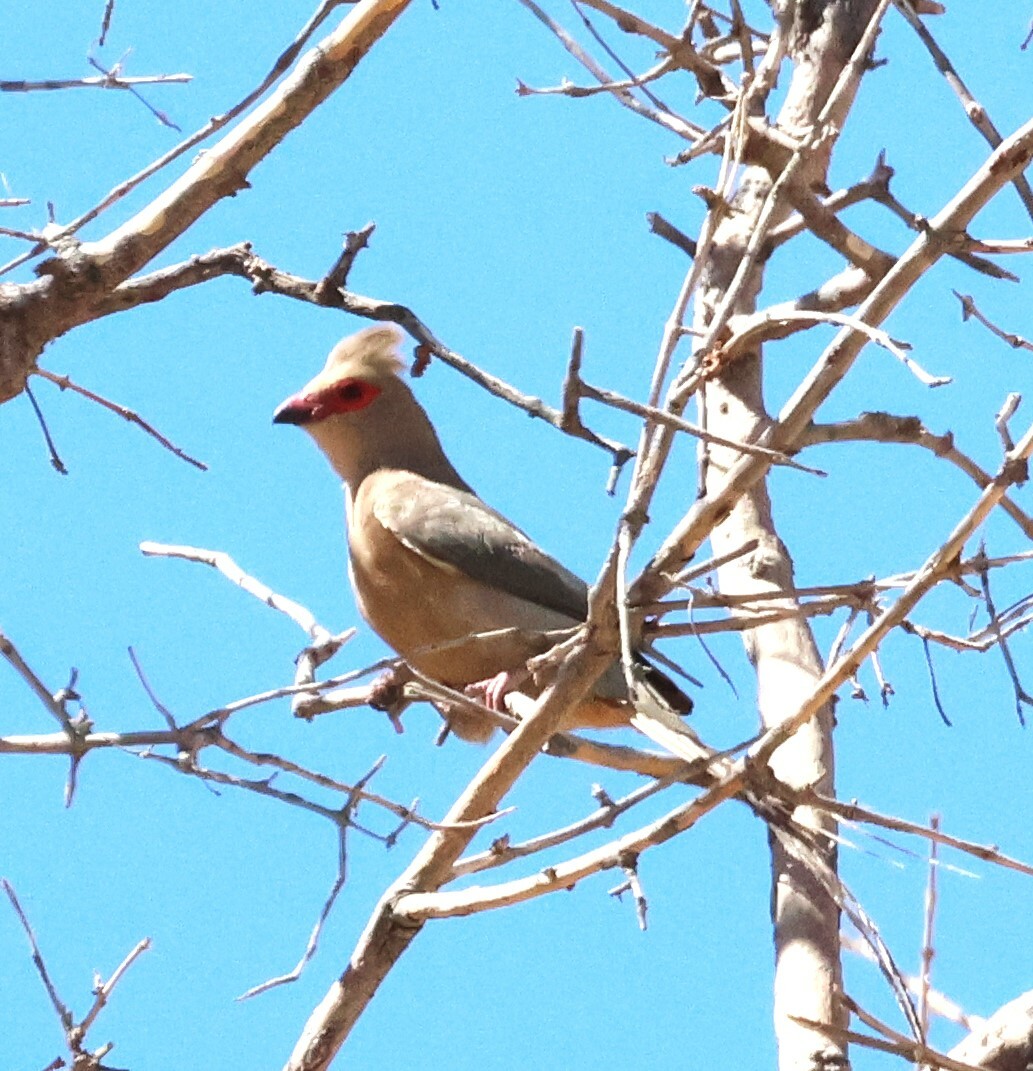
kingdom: Animalia
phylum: Chordata
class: Aves
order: Coliiformes
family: Coliidae
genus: Urocolius
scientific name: Urocolius indicus
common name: Red-faced mousebird
